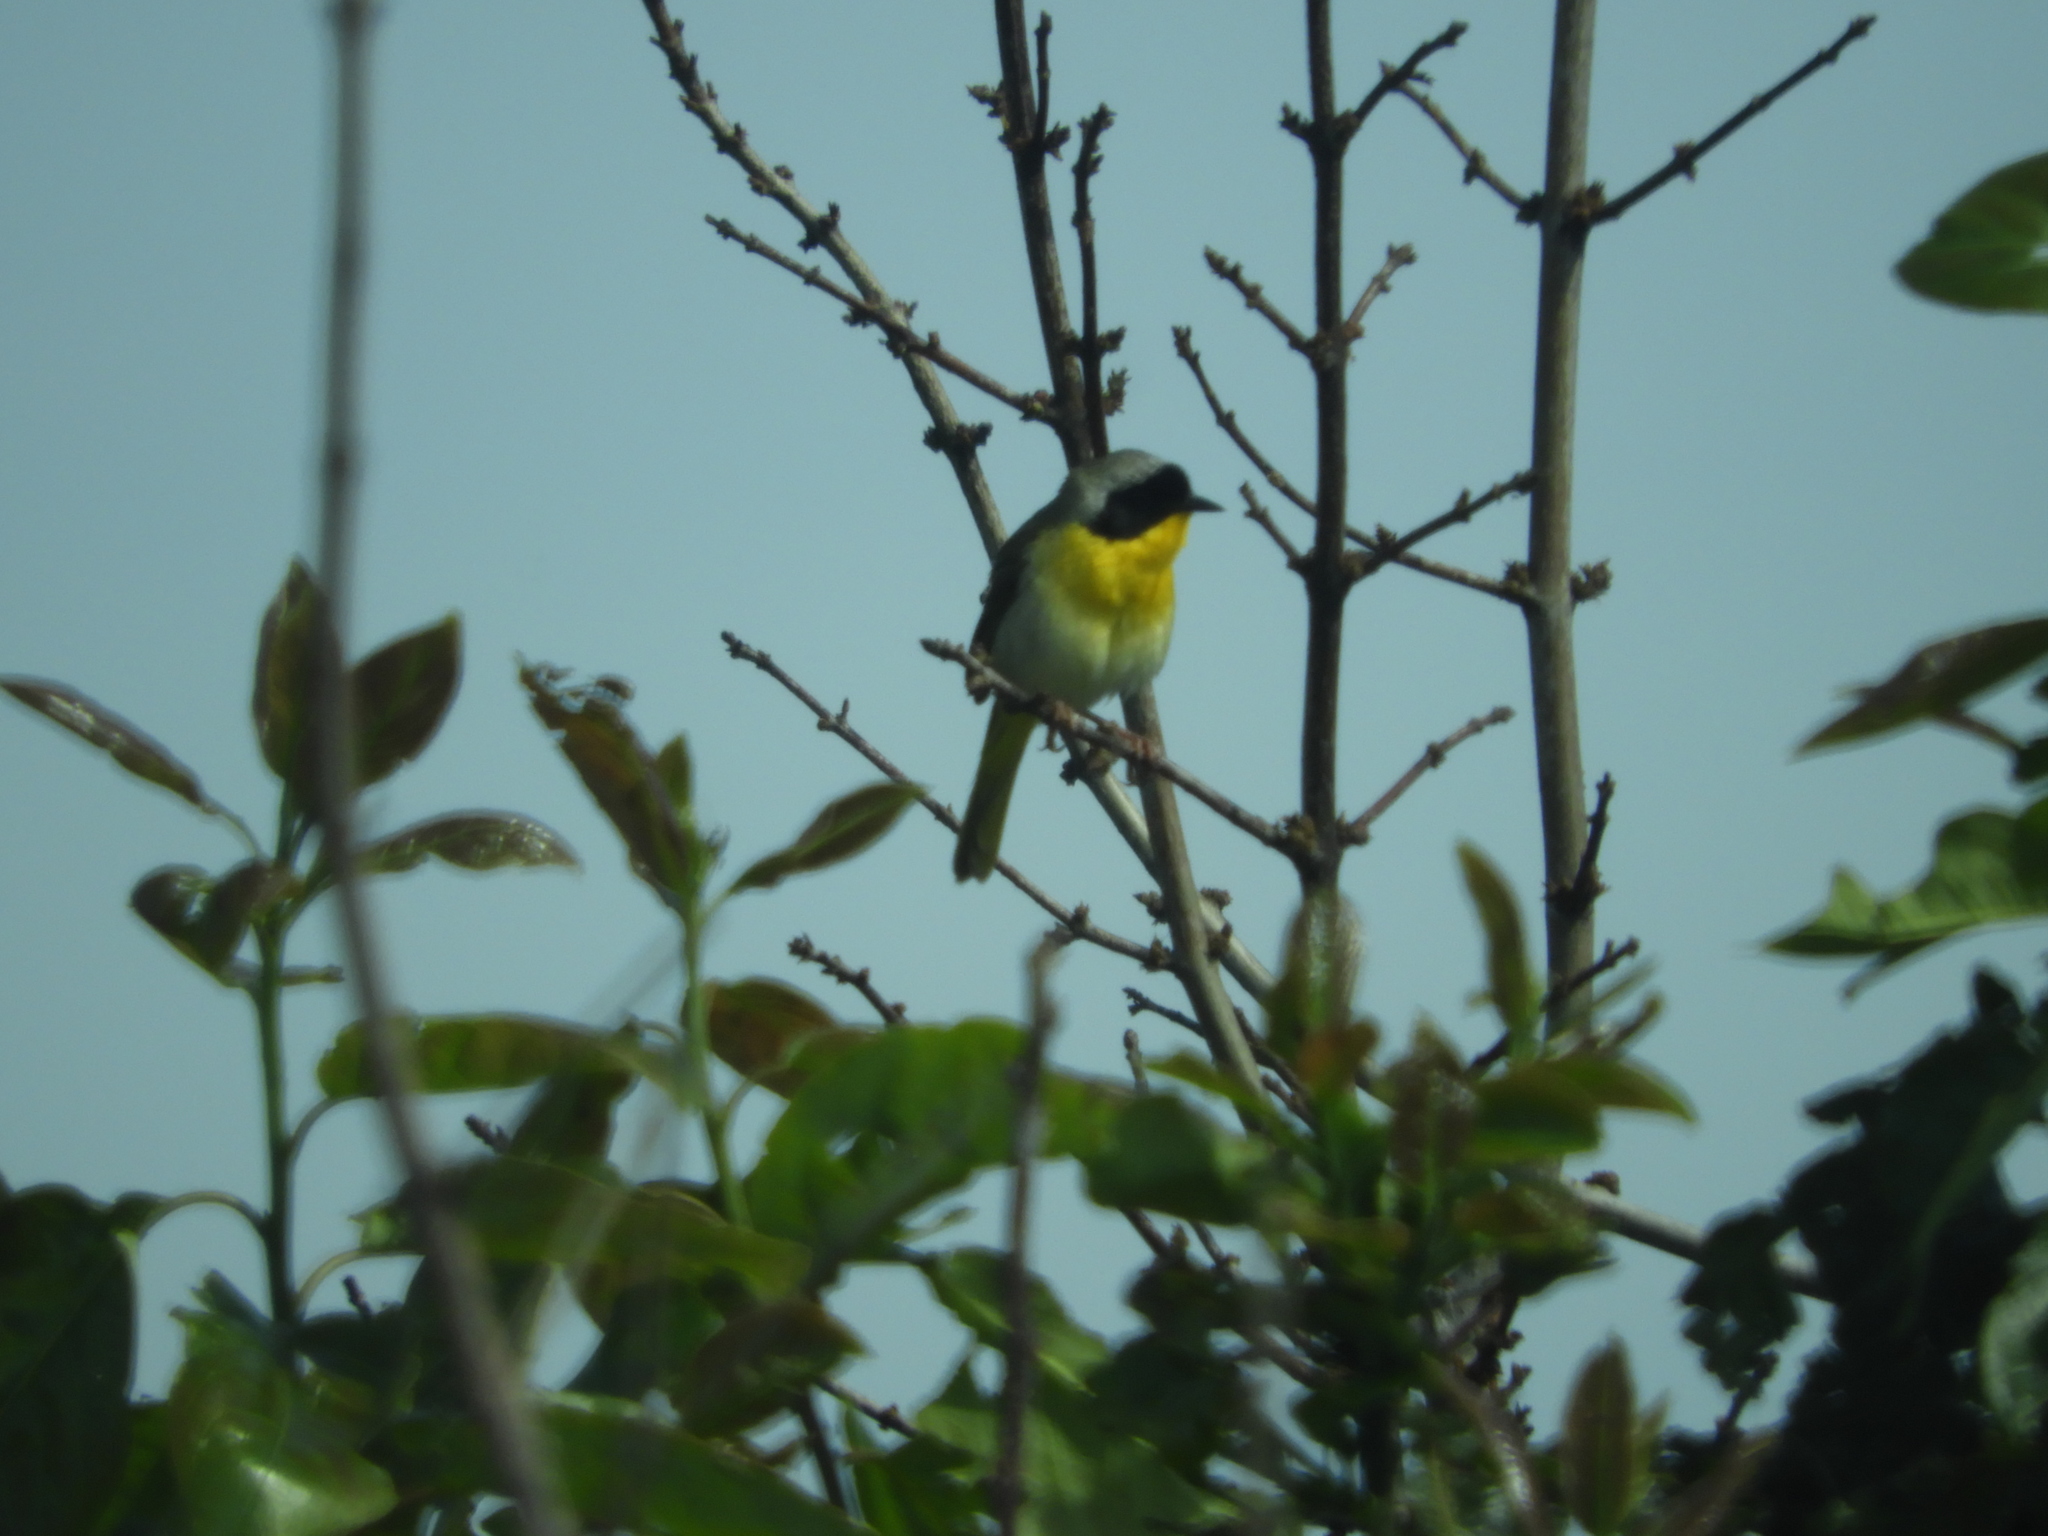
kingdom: Animalia
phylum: Chordata
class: Aves
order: Passeriformes
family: Parulidae
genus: Geothlypis
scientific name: Geothlypis trichas
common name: Common yellowthroat
